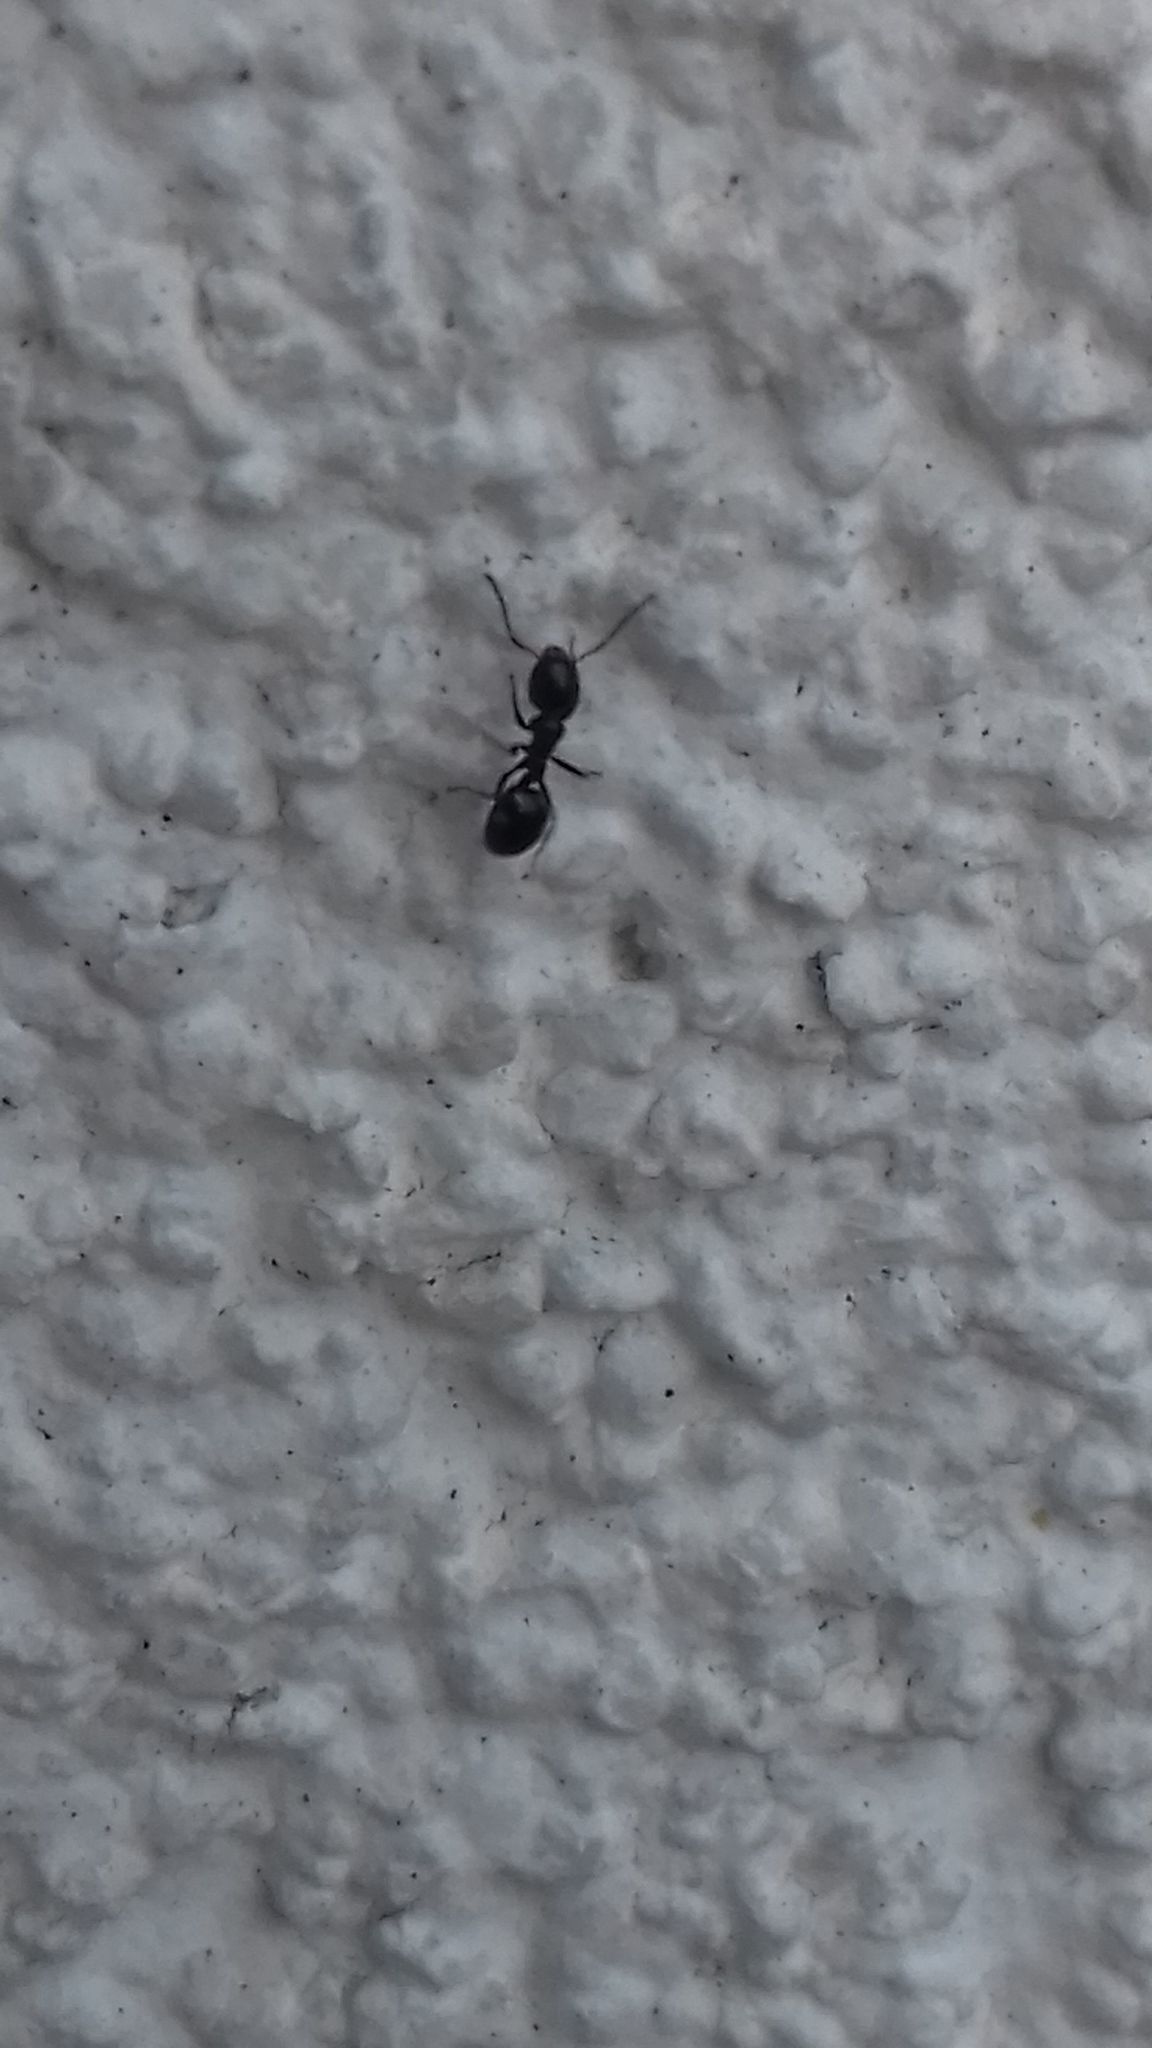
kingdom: Animalia
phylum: Arthropoda
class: Insecta
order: Hymenoptera
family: Formicidae
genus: Dolichoderus
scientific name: Dolichoderus quadripunctatus
